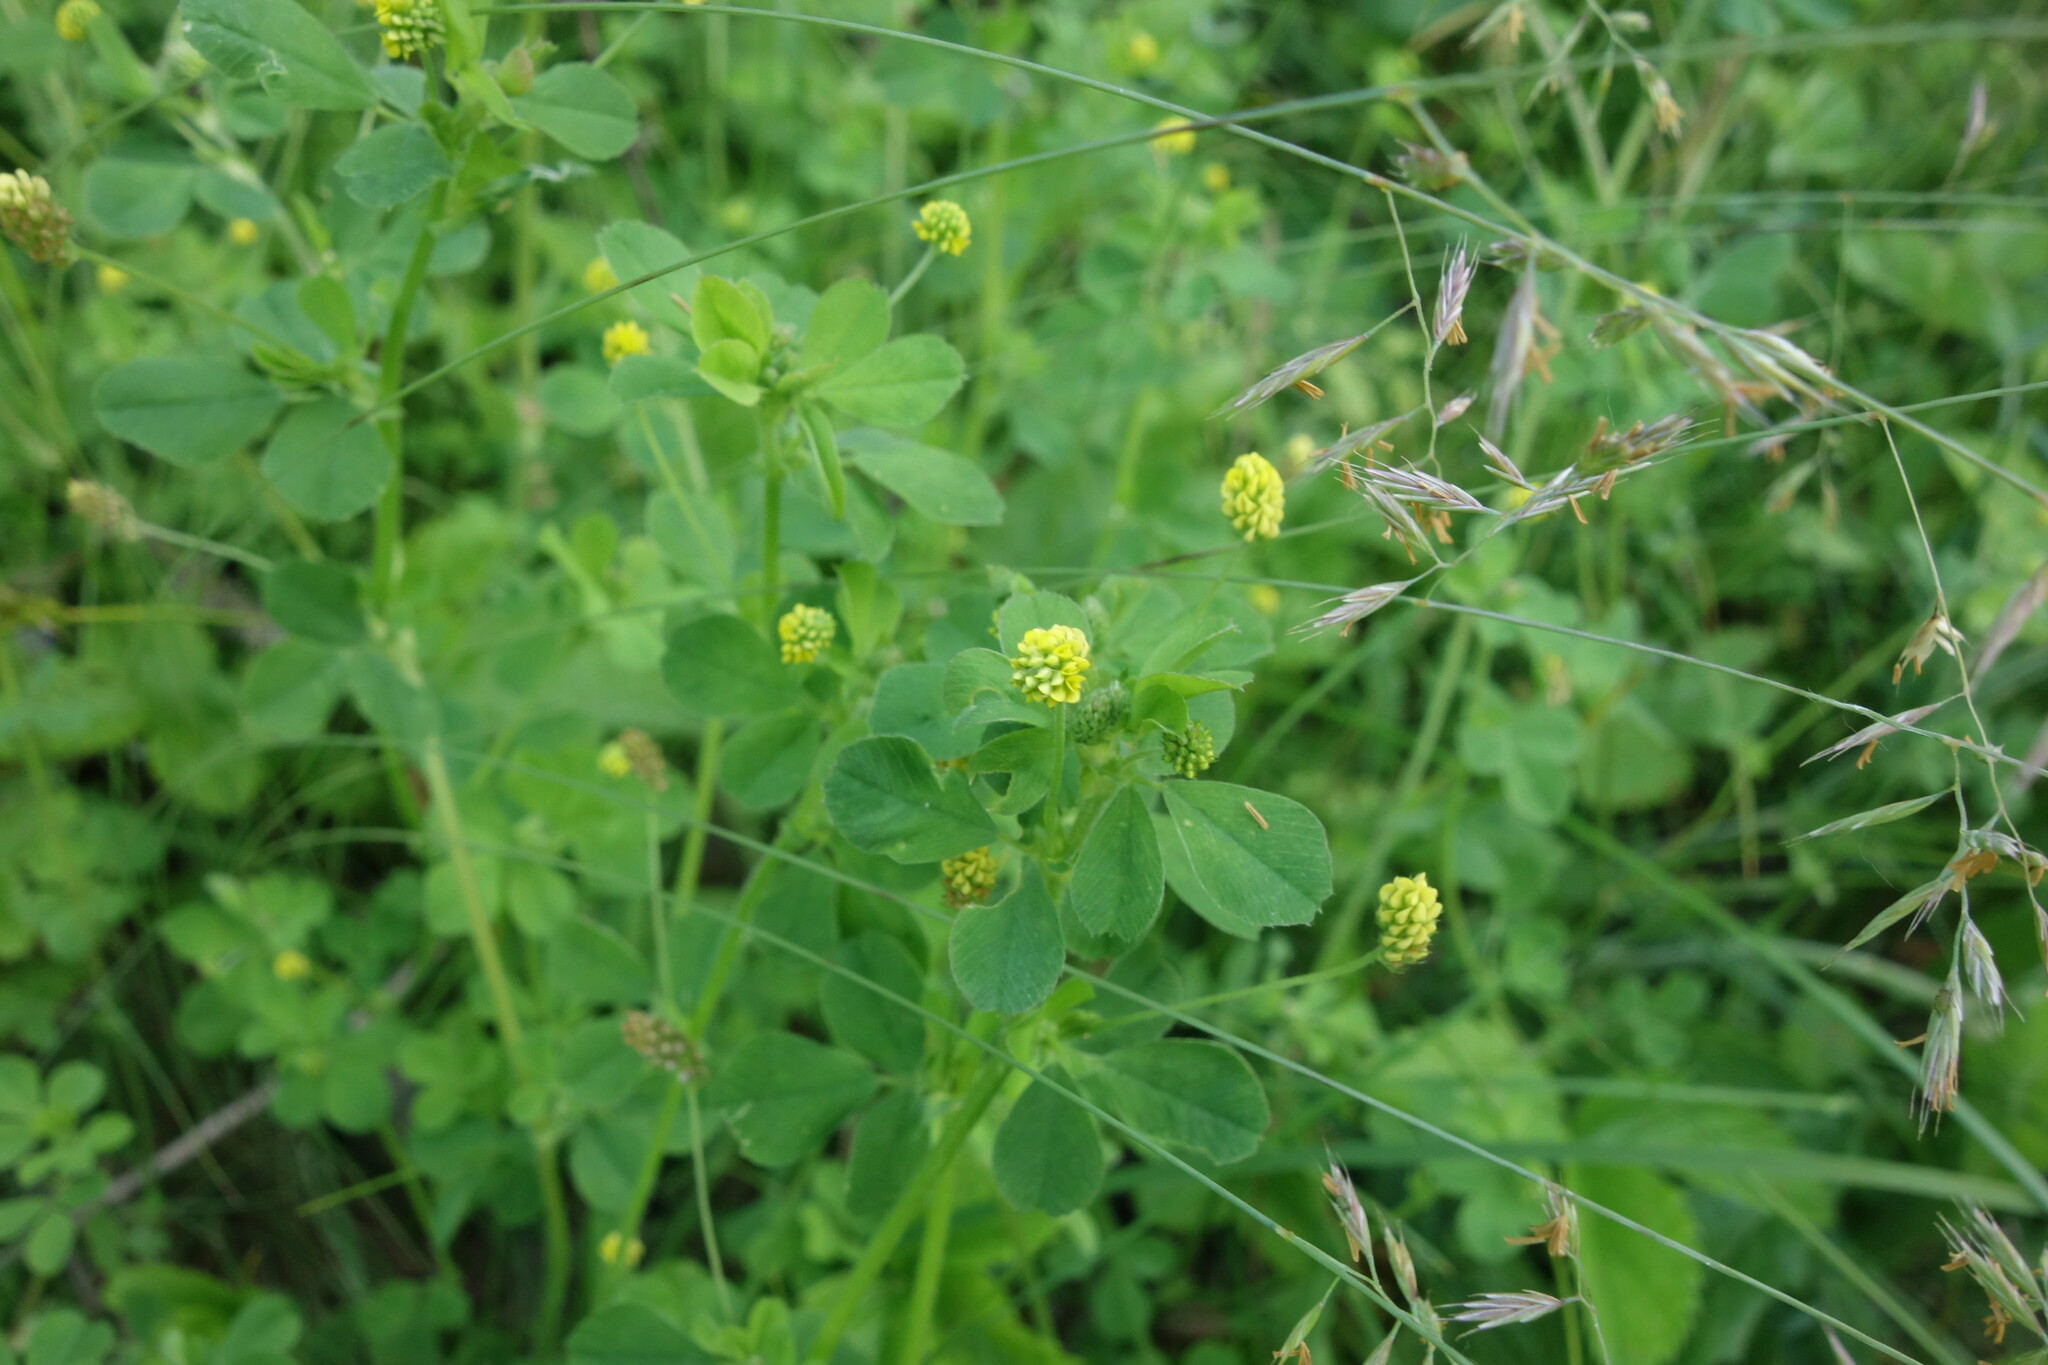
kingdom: Plantae
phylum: Tracheophyta
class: Magnoliopsida
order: Fabales
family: Fabaceae
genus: Medicago
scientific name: Medicago lupulina
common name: Black medick
